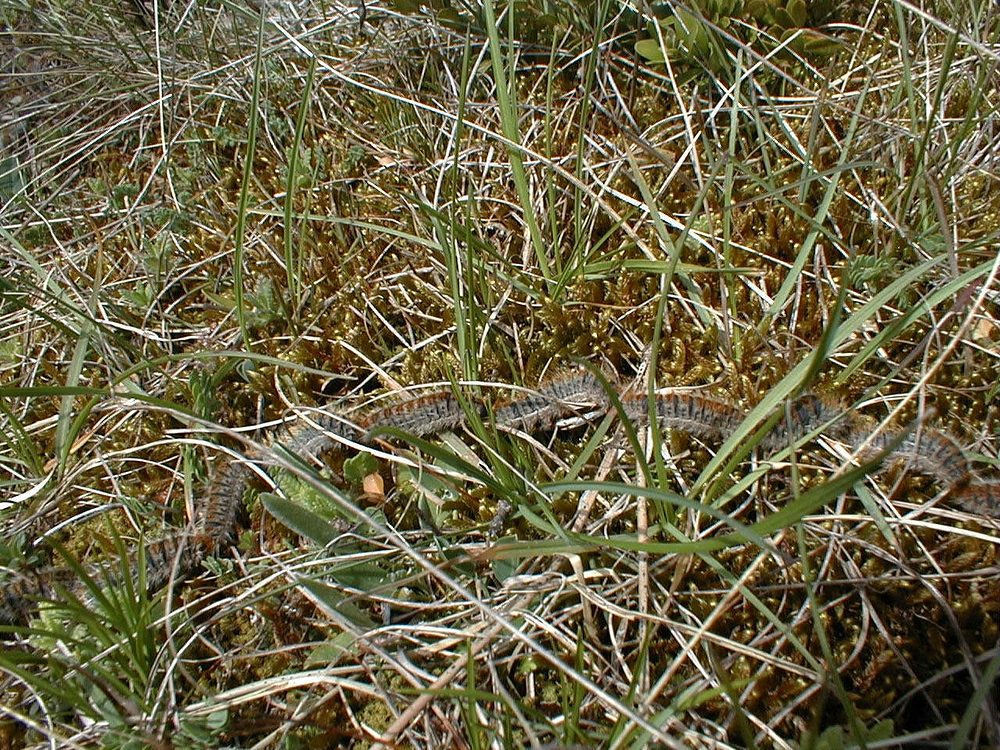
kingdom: Animalia
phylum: Arthropoda
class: Insecta
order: Lepidoptera
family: Notodontidae
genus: Thaumetopoea
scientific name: Thaumetopoea pityocampa
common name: Pine processionary
